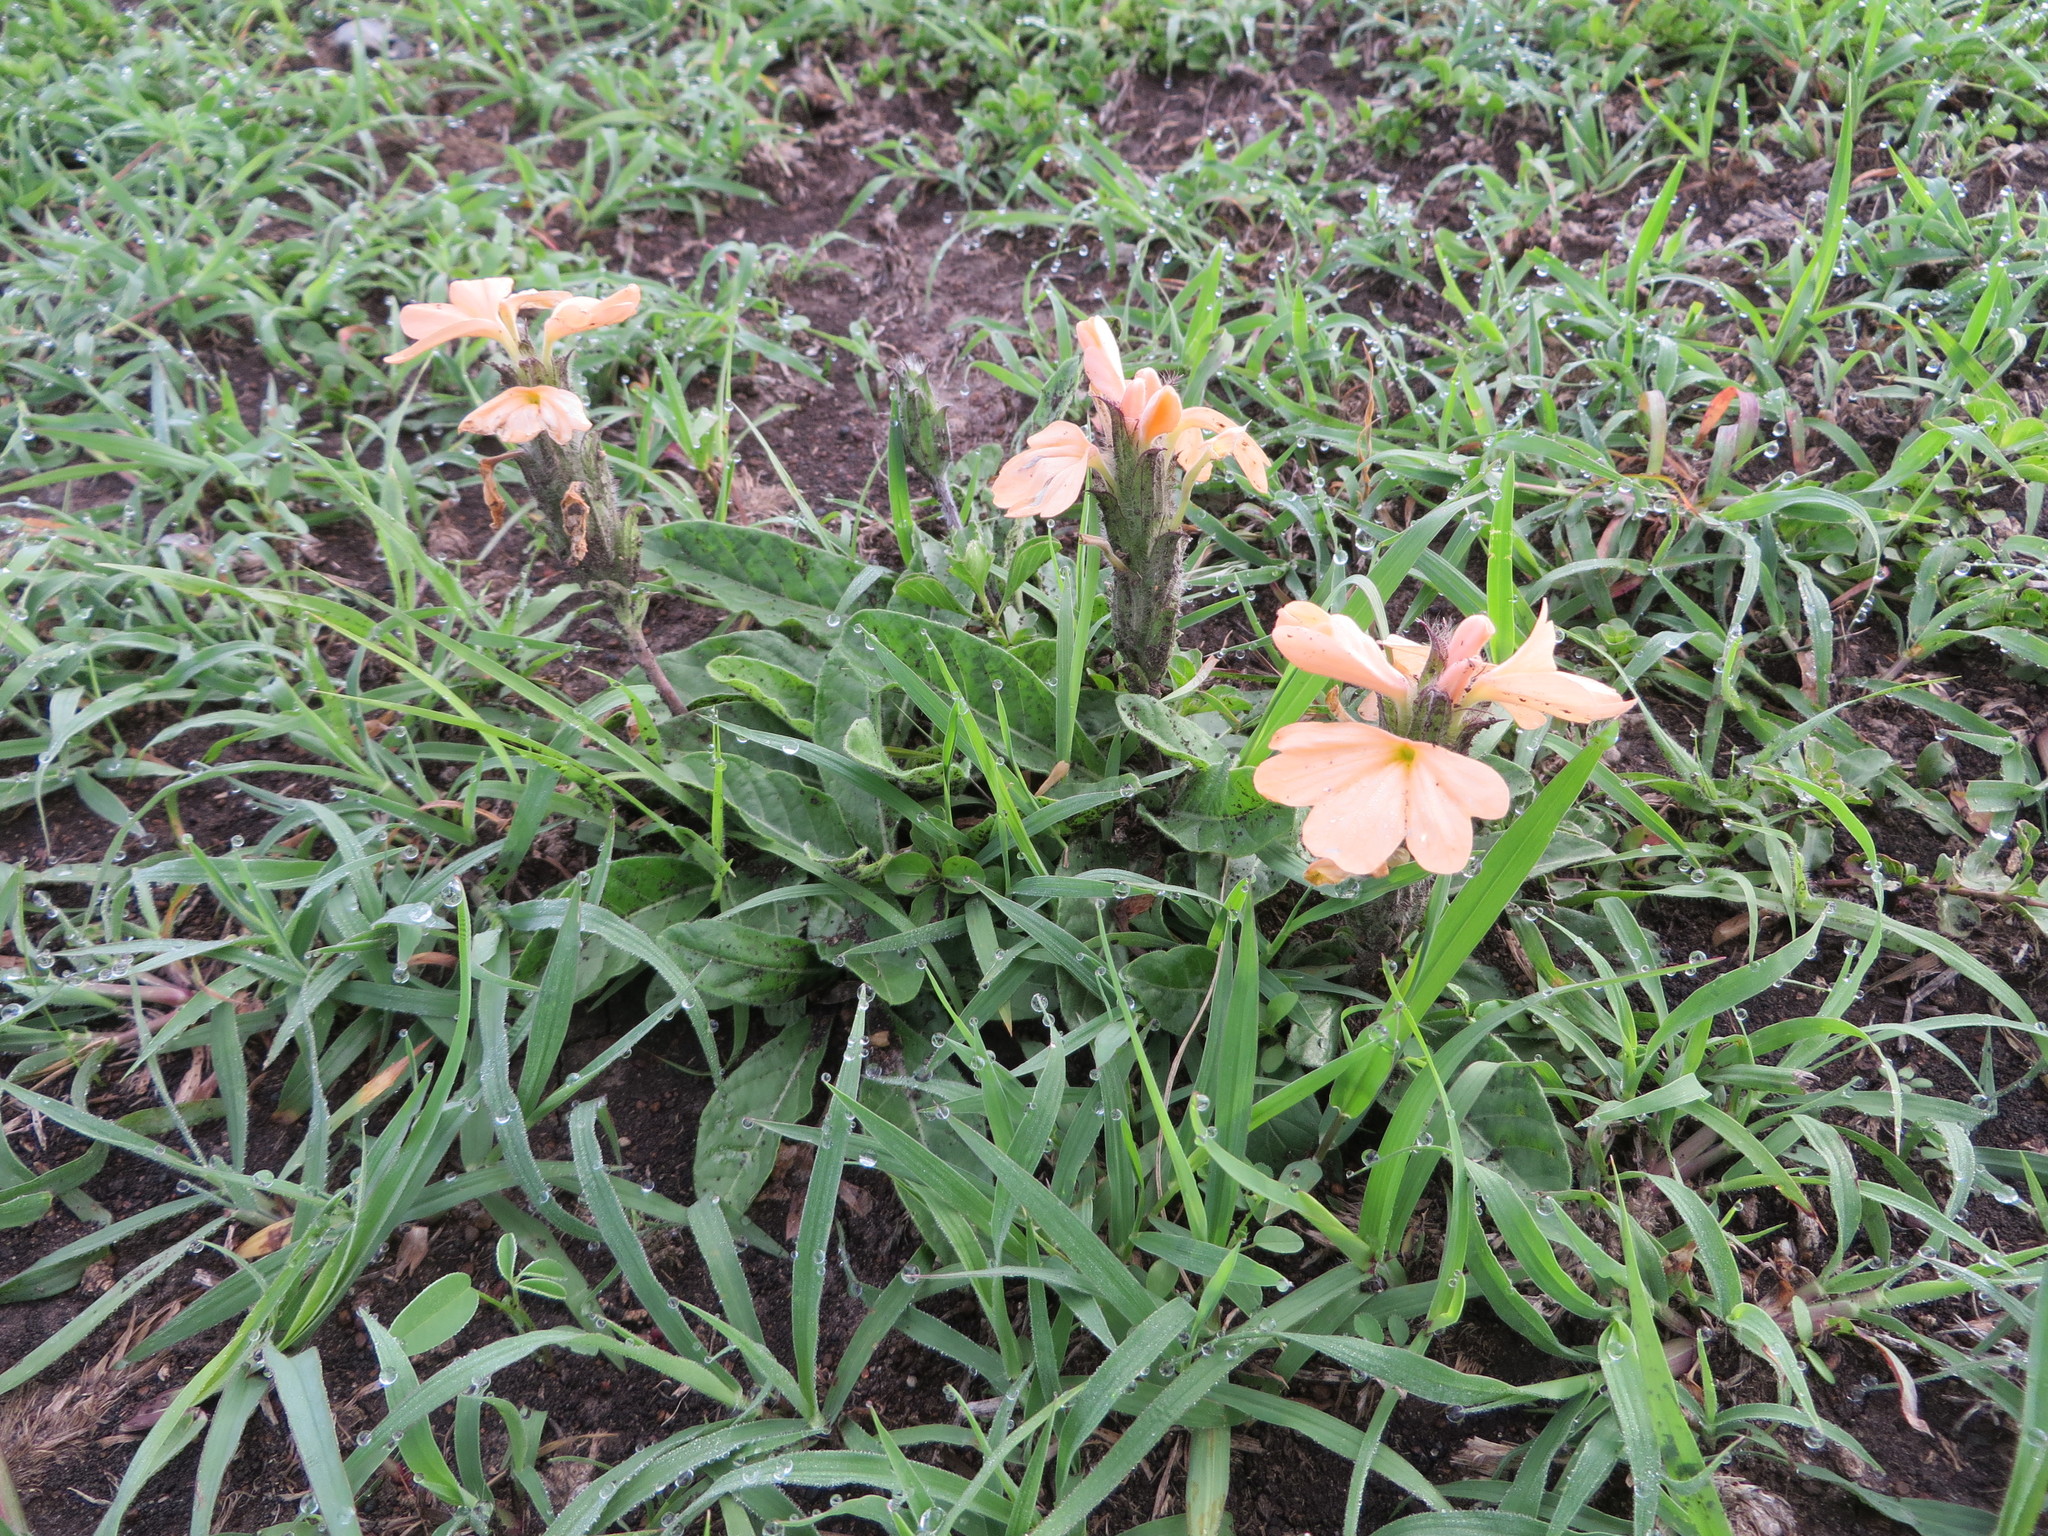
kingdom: Plantae
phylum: Tracheophyta
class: Magnoliopsida
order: Lamiales
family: Acanthaceae
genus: Crossandra
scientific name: Crossandra subacaulis
